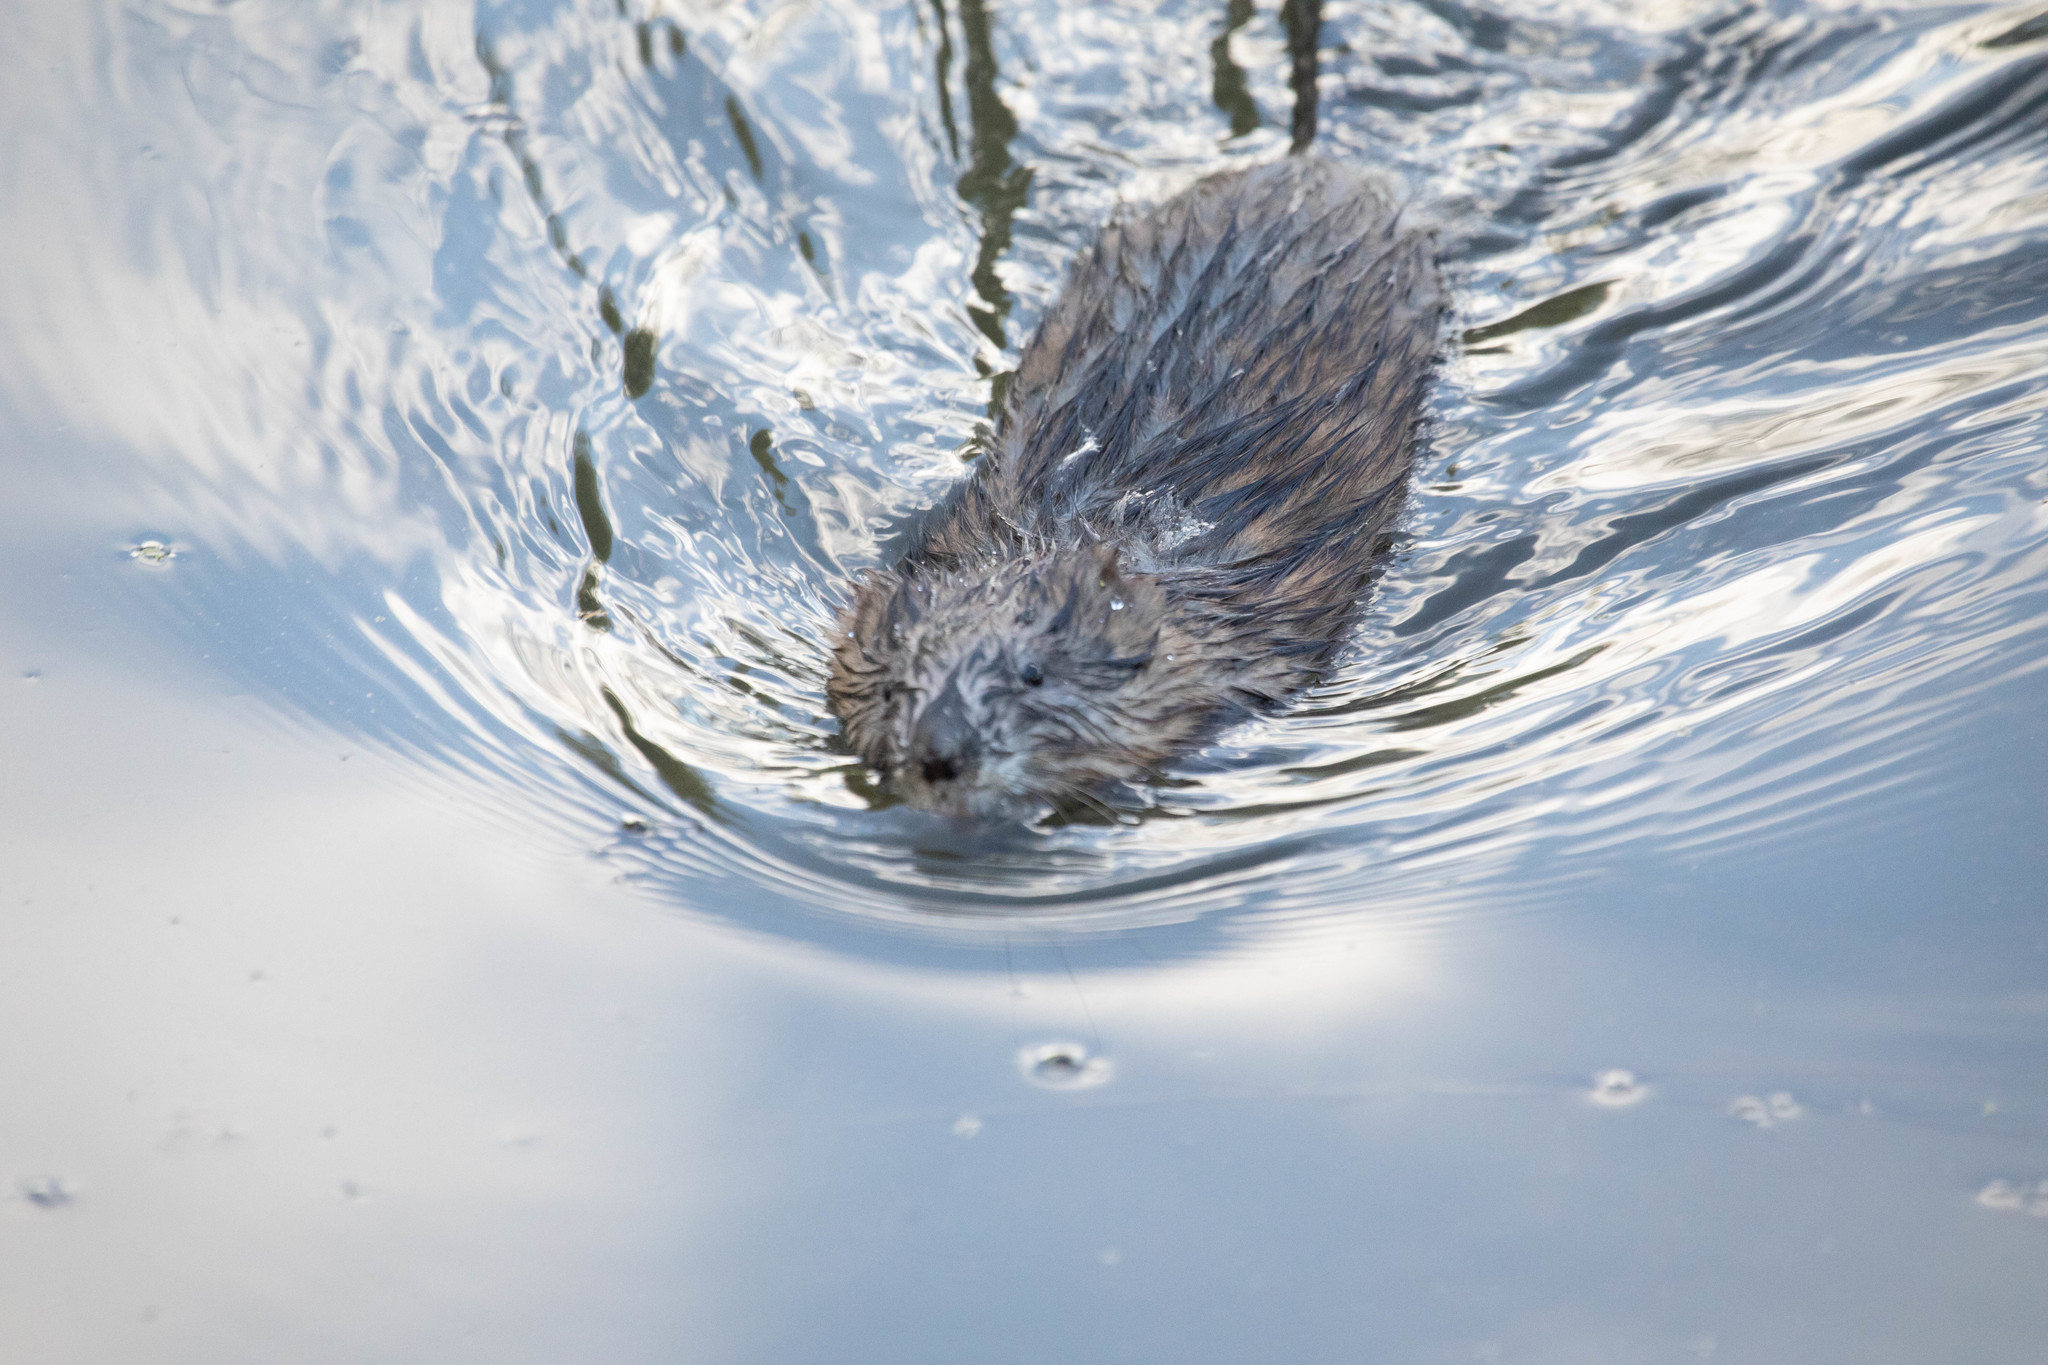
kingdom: Animalia
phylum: Chordata
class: Mammalia
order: Rodentia
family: Cricetidae
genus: Ondatra
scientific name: Ondatra zibethicus
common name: Muskrat
